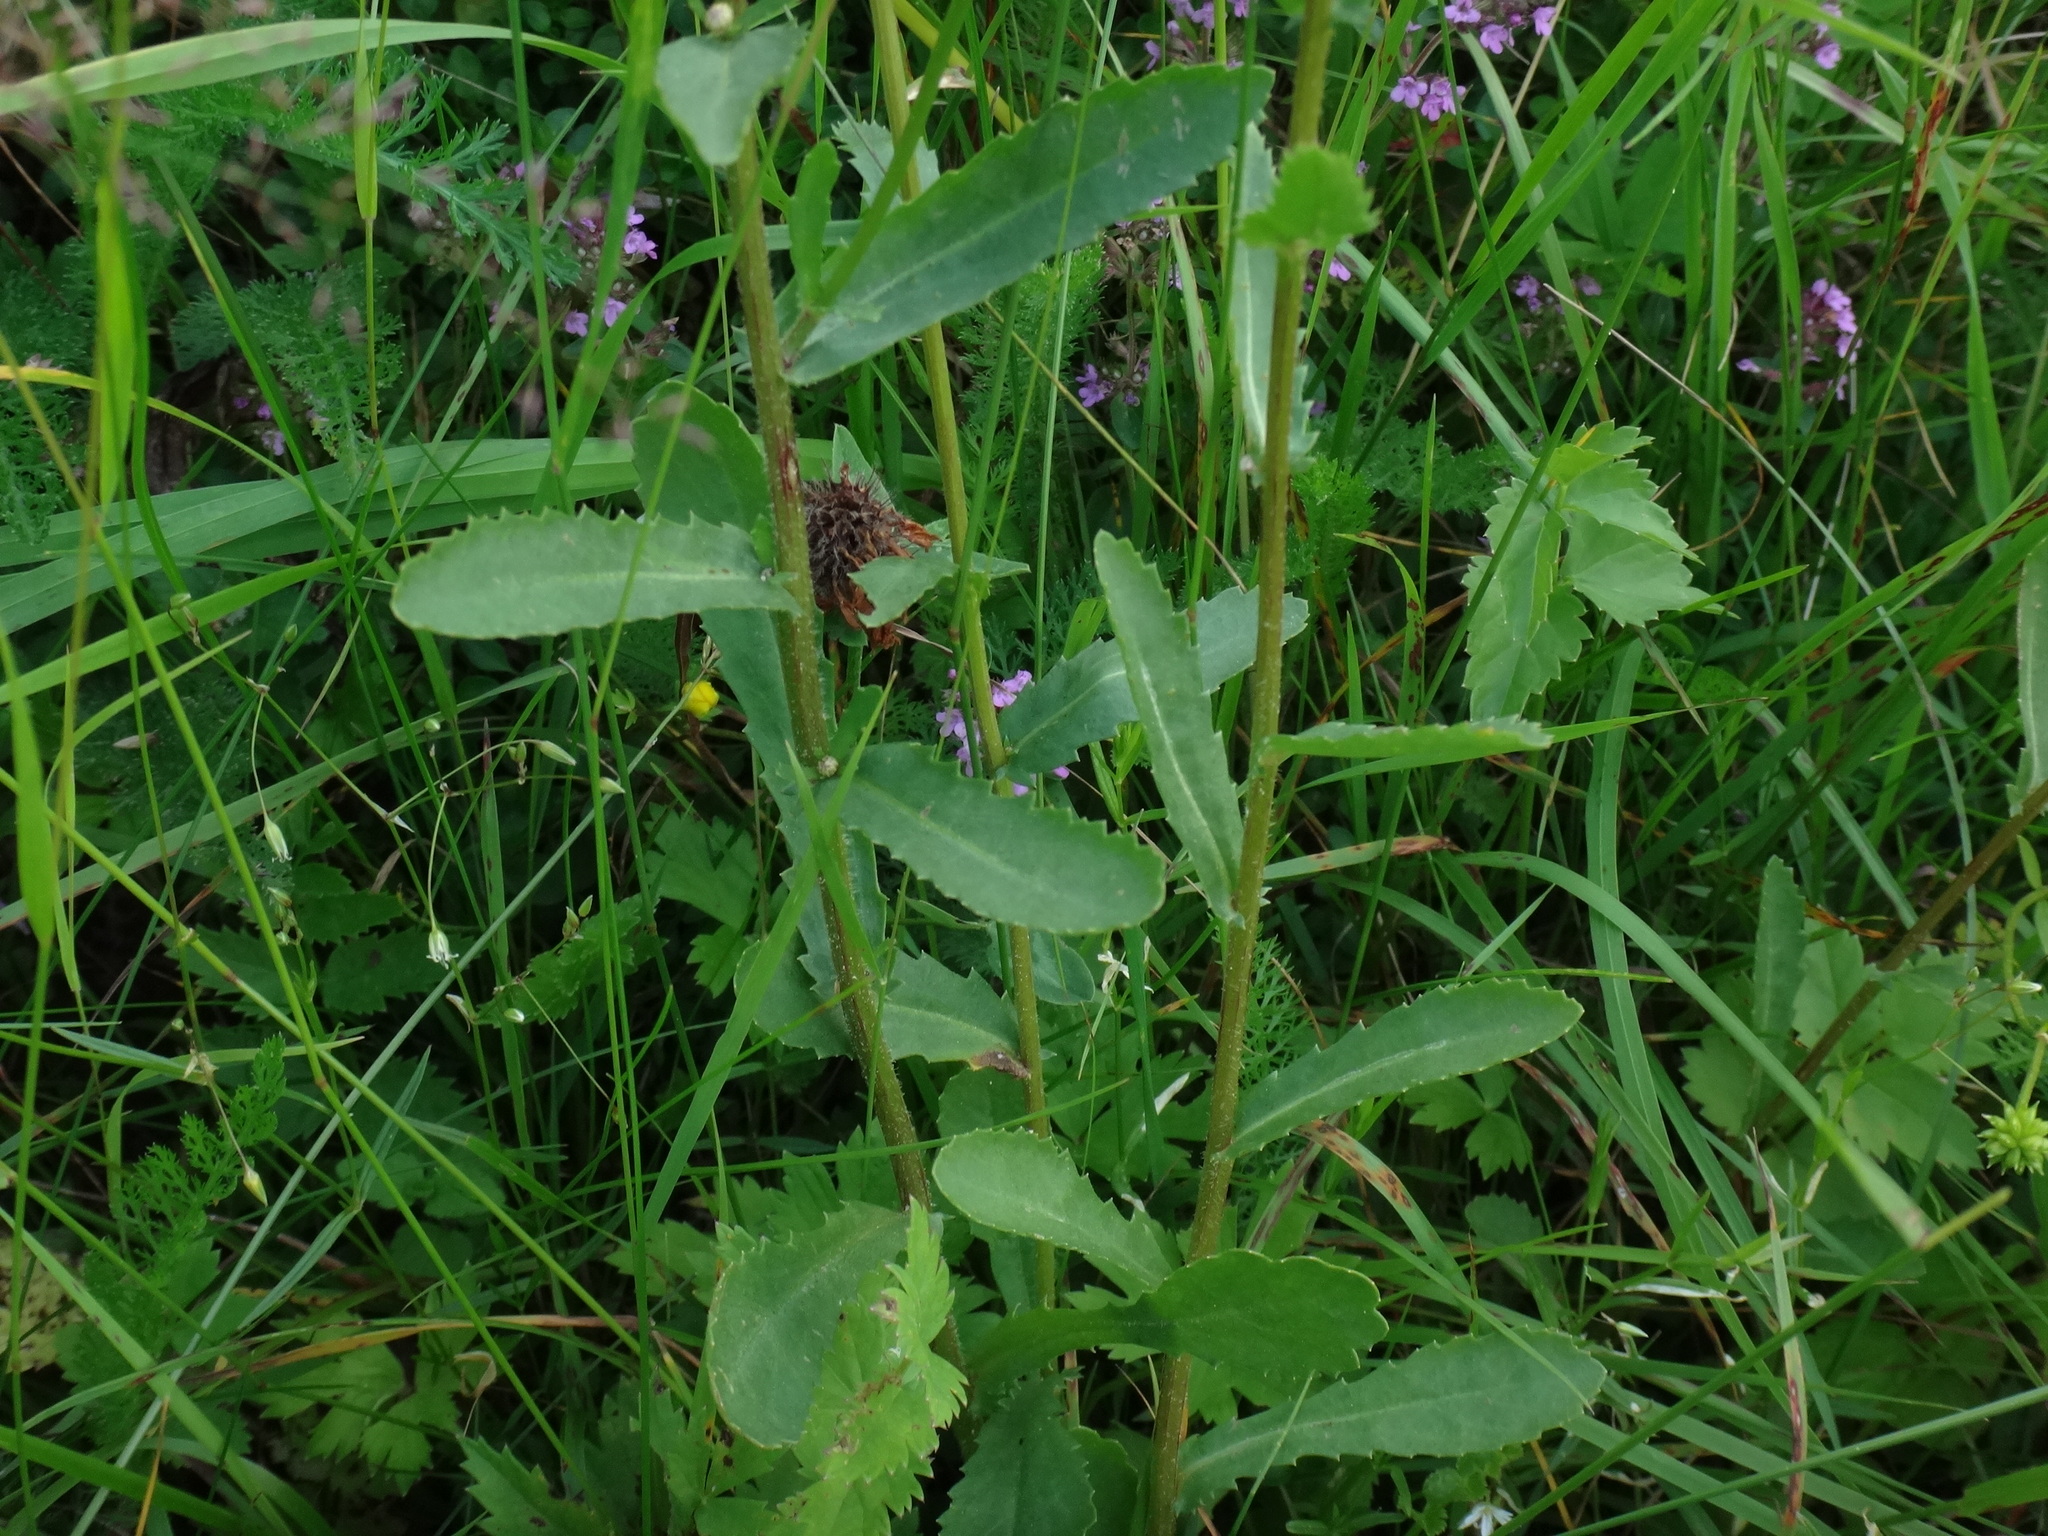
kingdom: Plantae
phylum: Tracheophyta
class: Magnoliopsida
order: Asterales
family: Asteraceae
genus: Leucanthemum
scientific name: Leucanthemum vulgare
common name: Oxeye daisy
